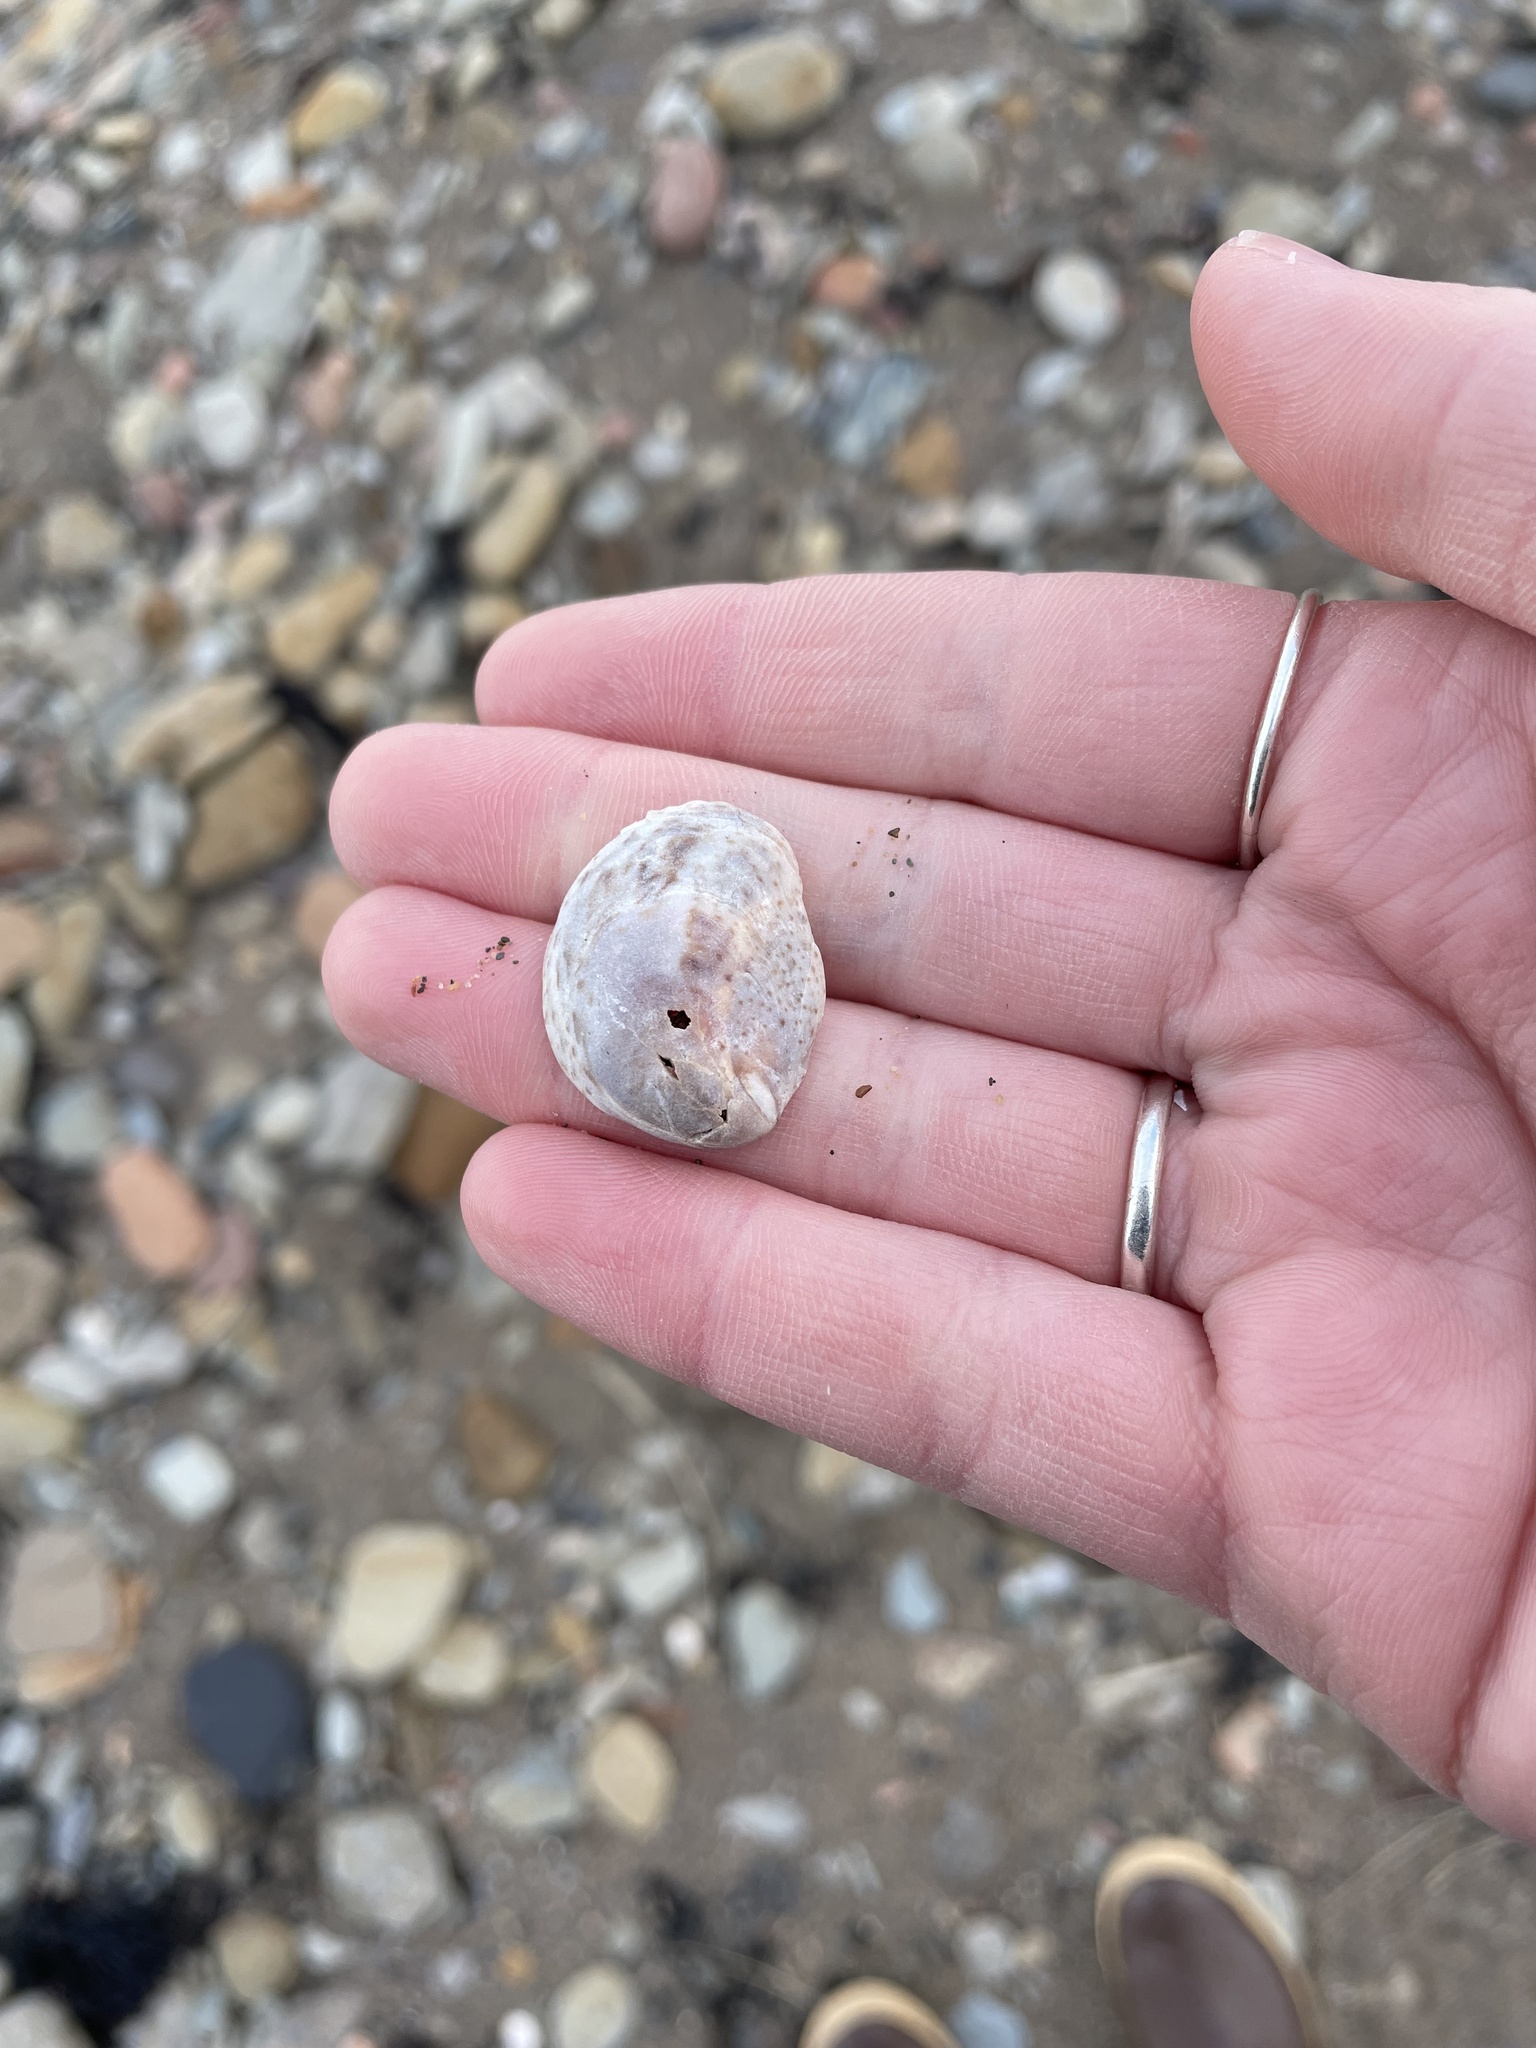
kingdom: Animalia
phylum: Mollusca
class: Gastropoda
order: Littorinimorpha
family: Calyptraeidae
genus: Crepidula
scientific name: Crepidula fornicata
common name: Slipper limpet
